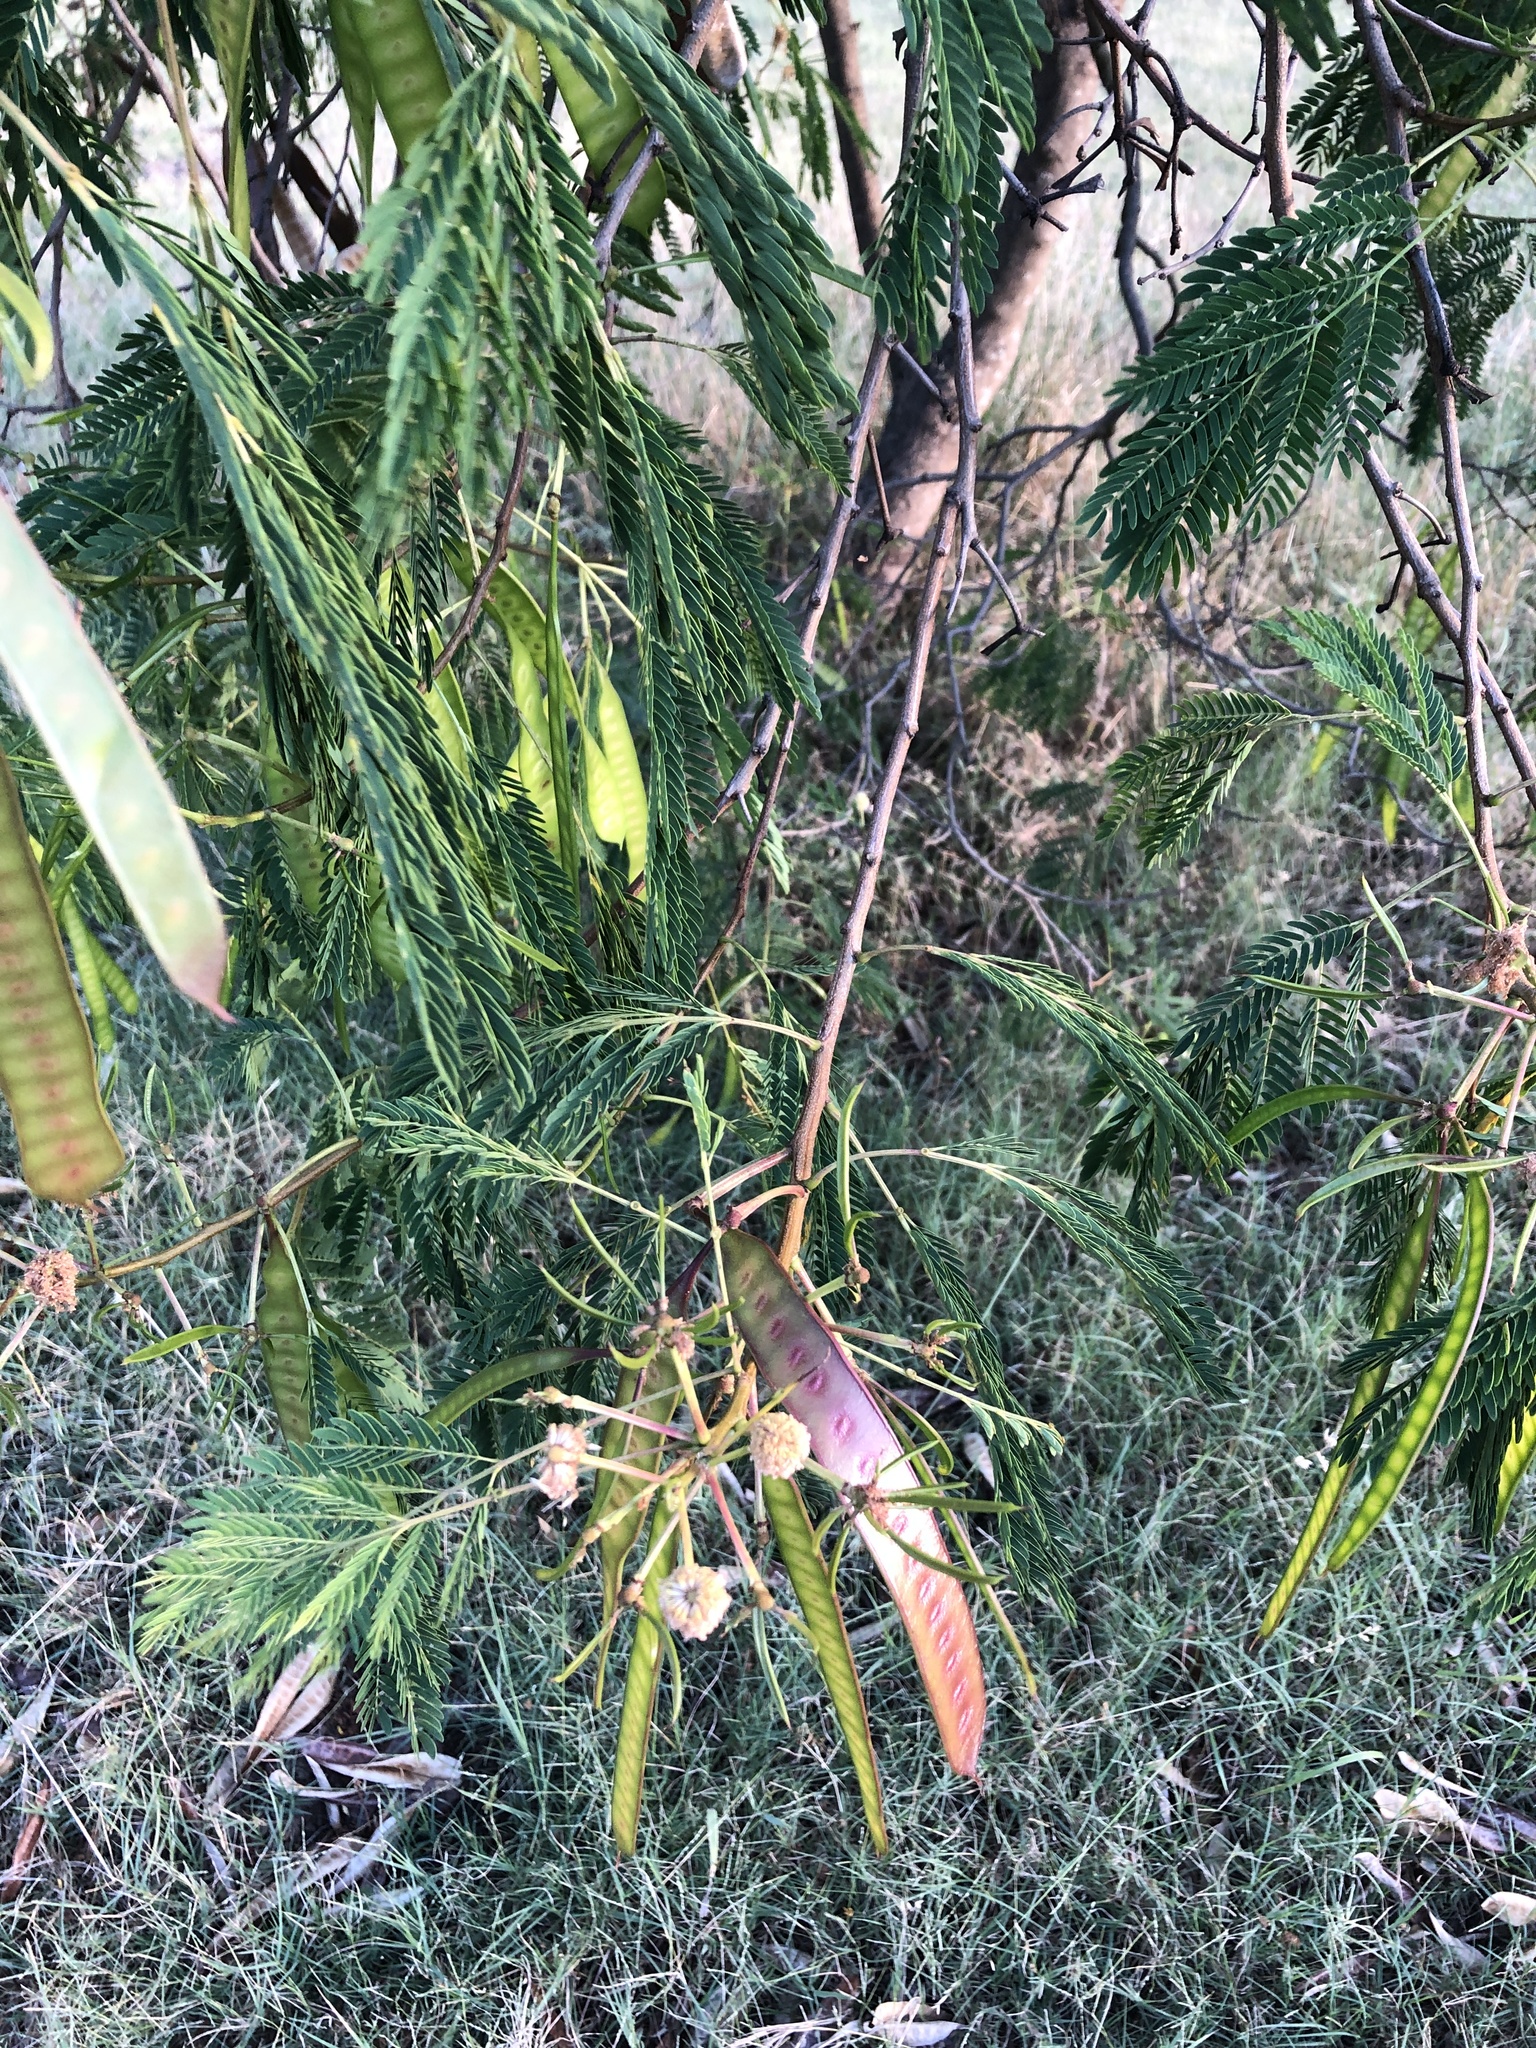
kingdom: Plantae
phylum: Tracheophyta
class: Magnoliopsida
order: Fabales
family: Fabaceae
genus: Leucaena
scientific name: Leucaena leucocephala
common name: White leadtree
